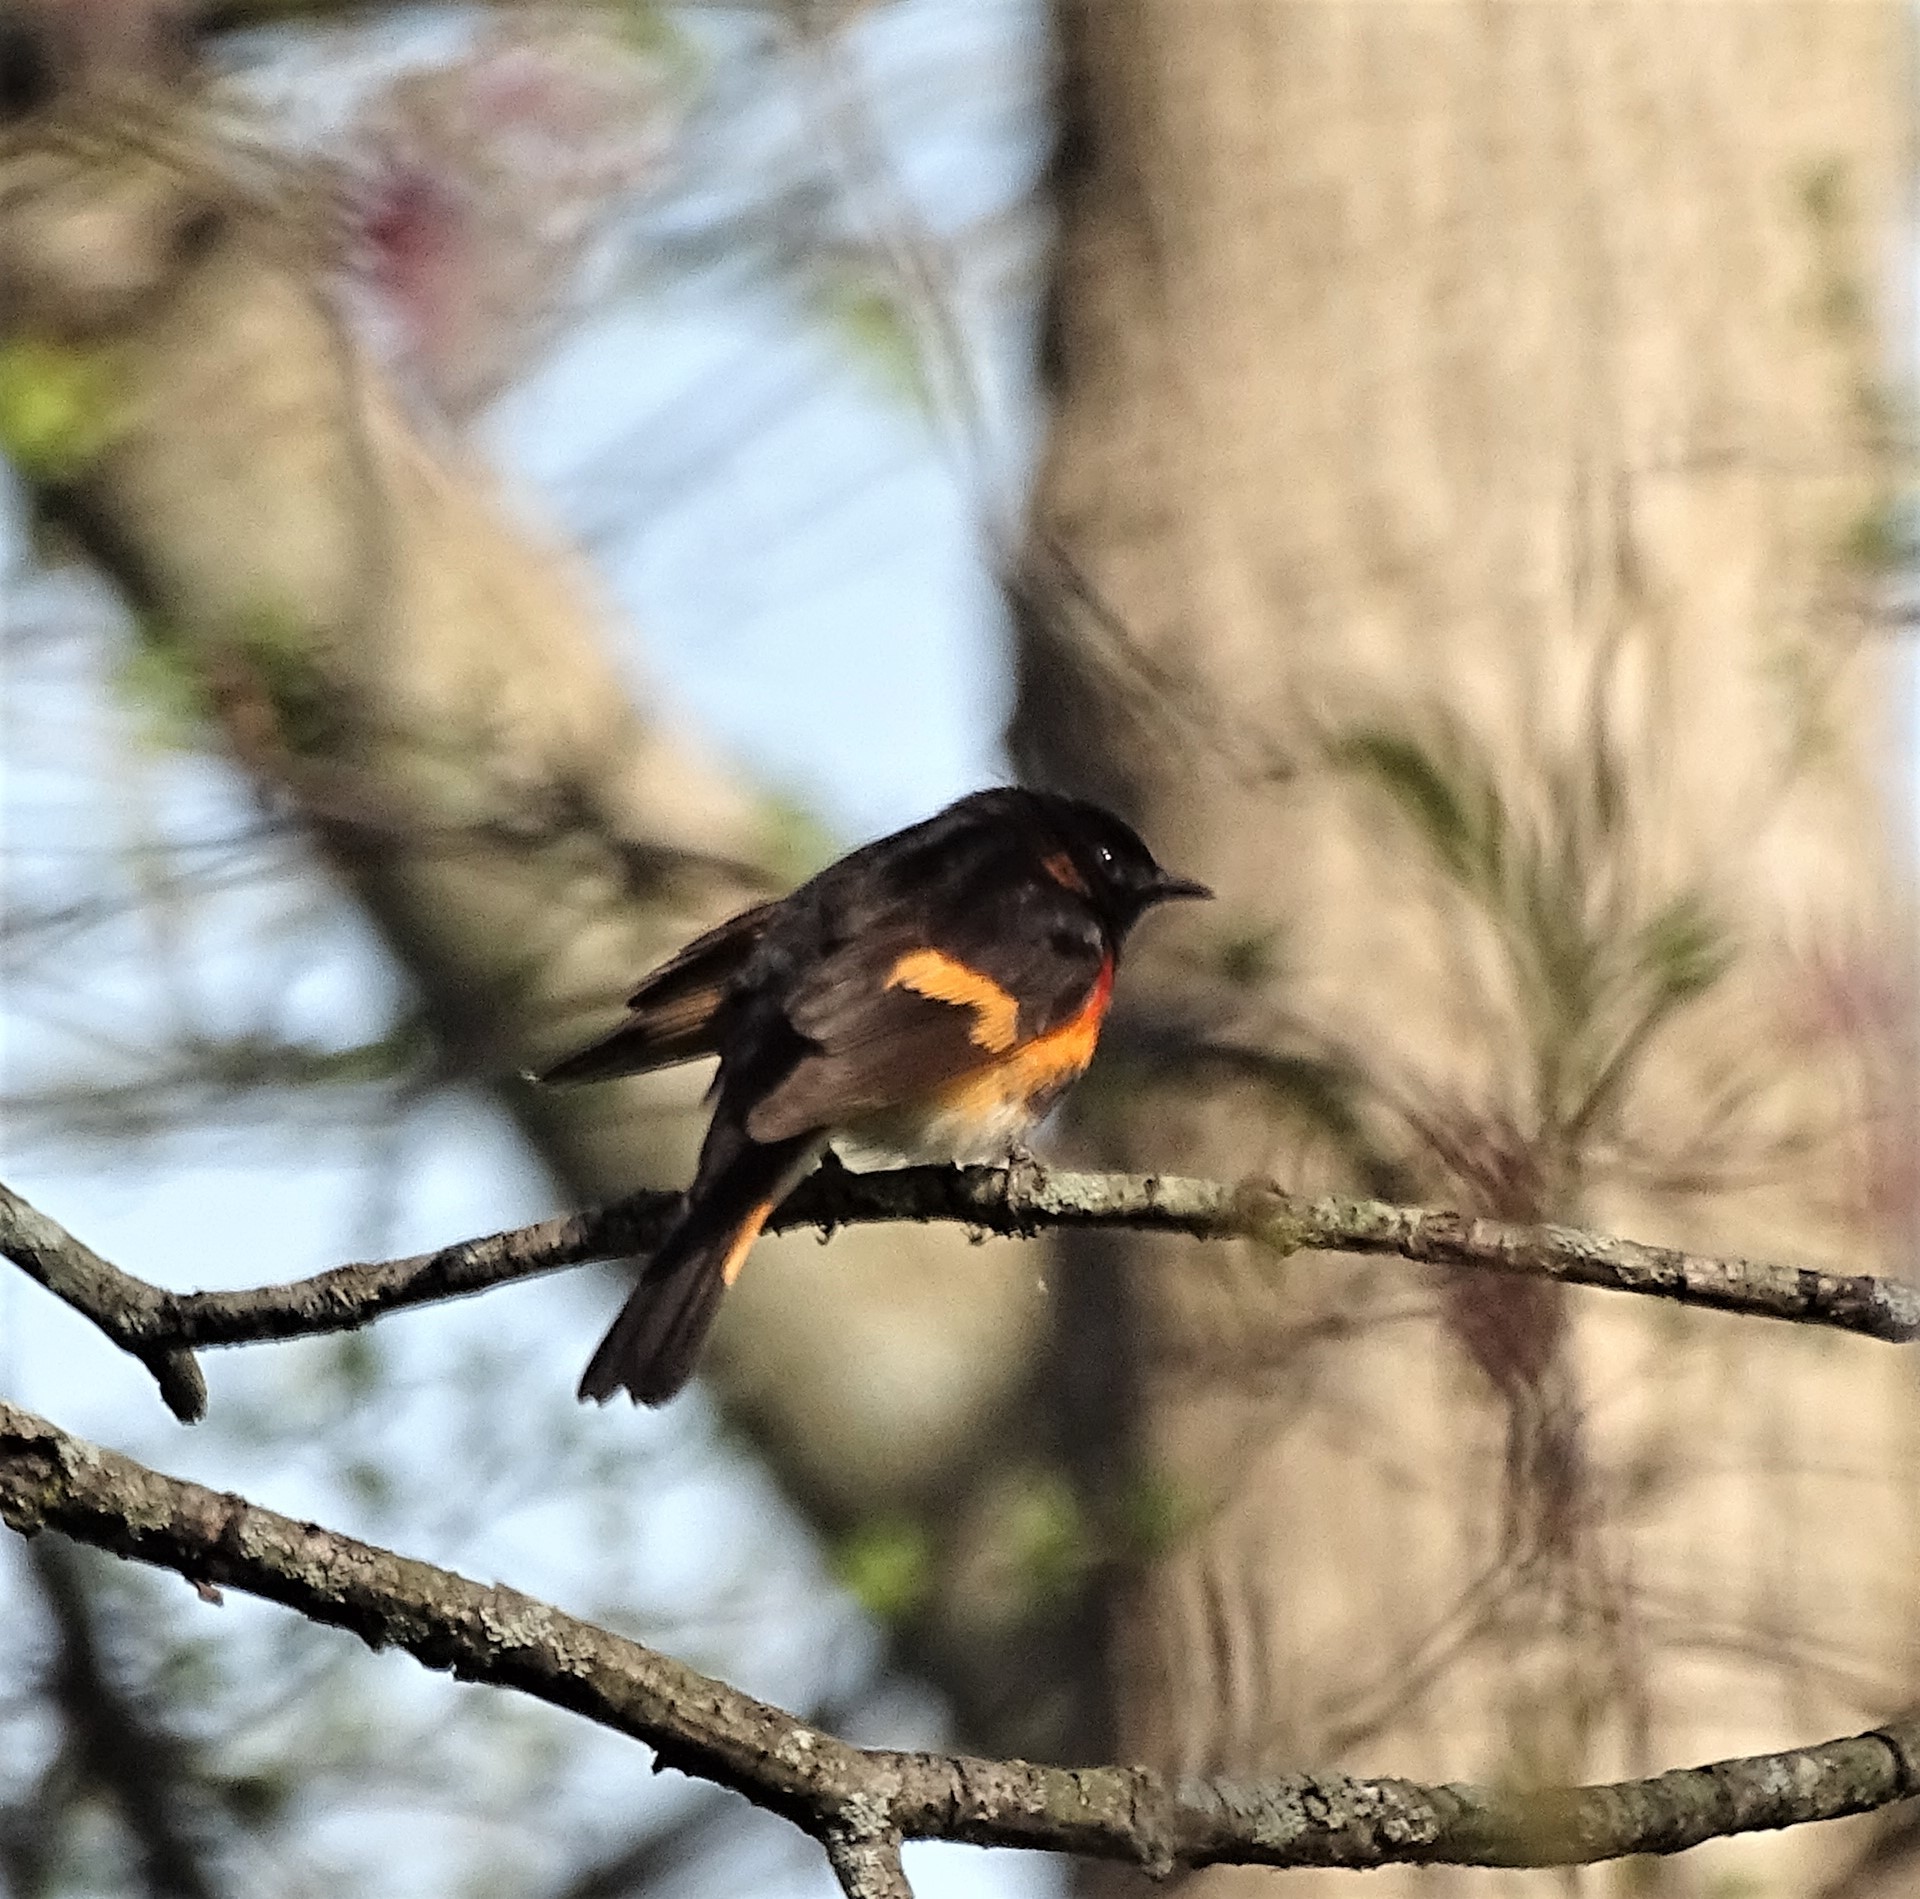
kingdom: Animalia
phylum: Chordata
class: Aves
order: Passeriformes
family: Parulidae
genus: Setophaga
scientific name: Setophaga ruticilla
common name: American redstart
